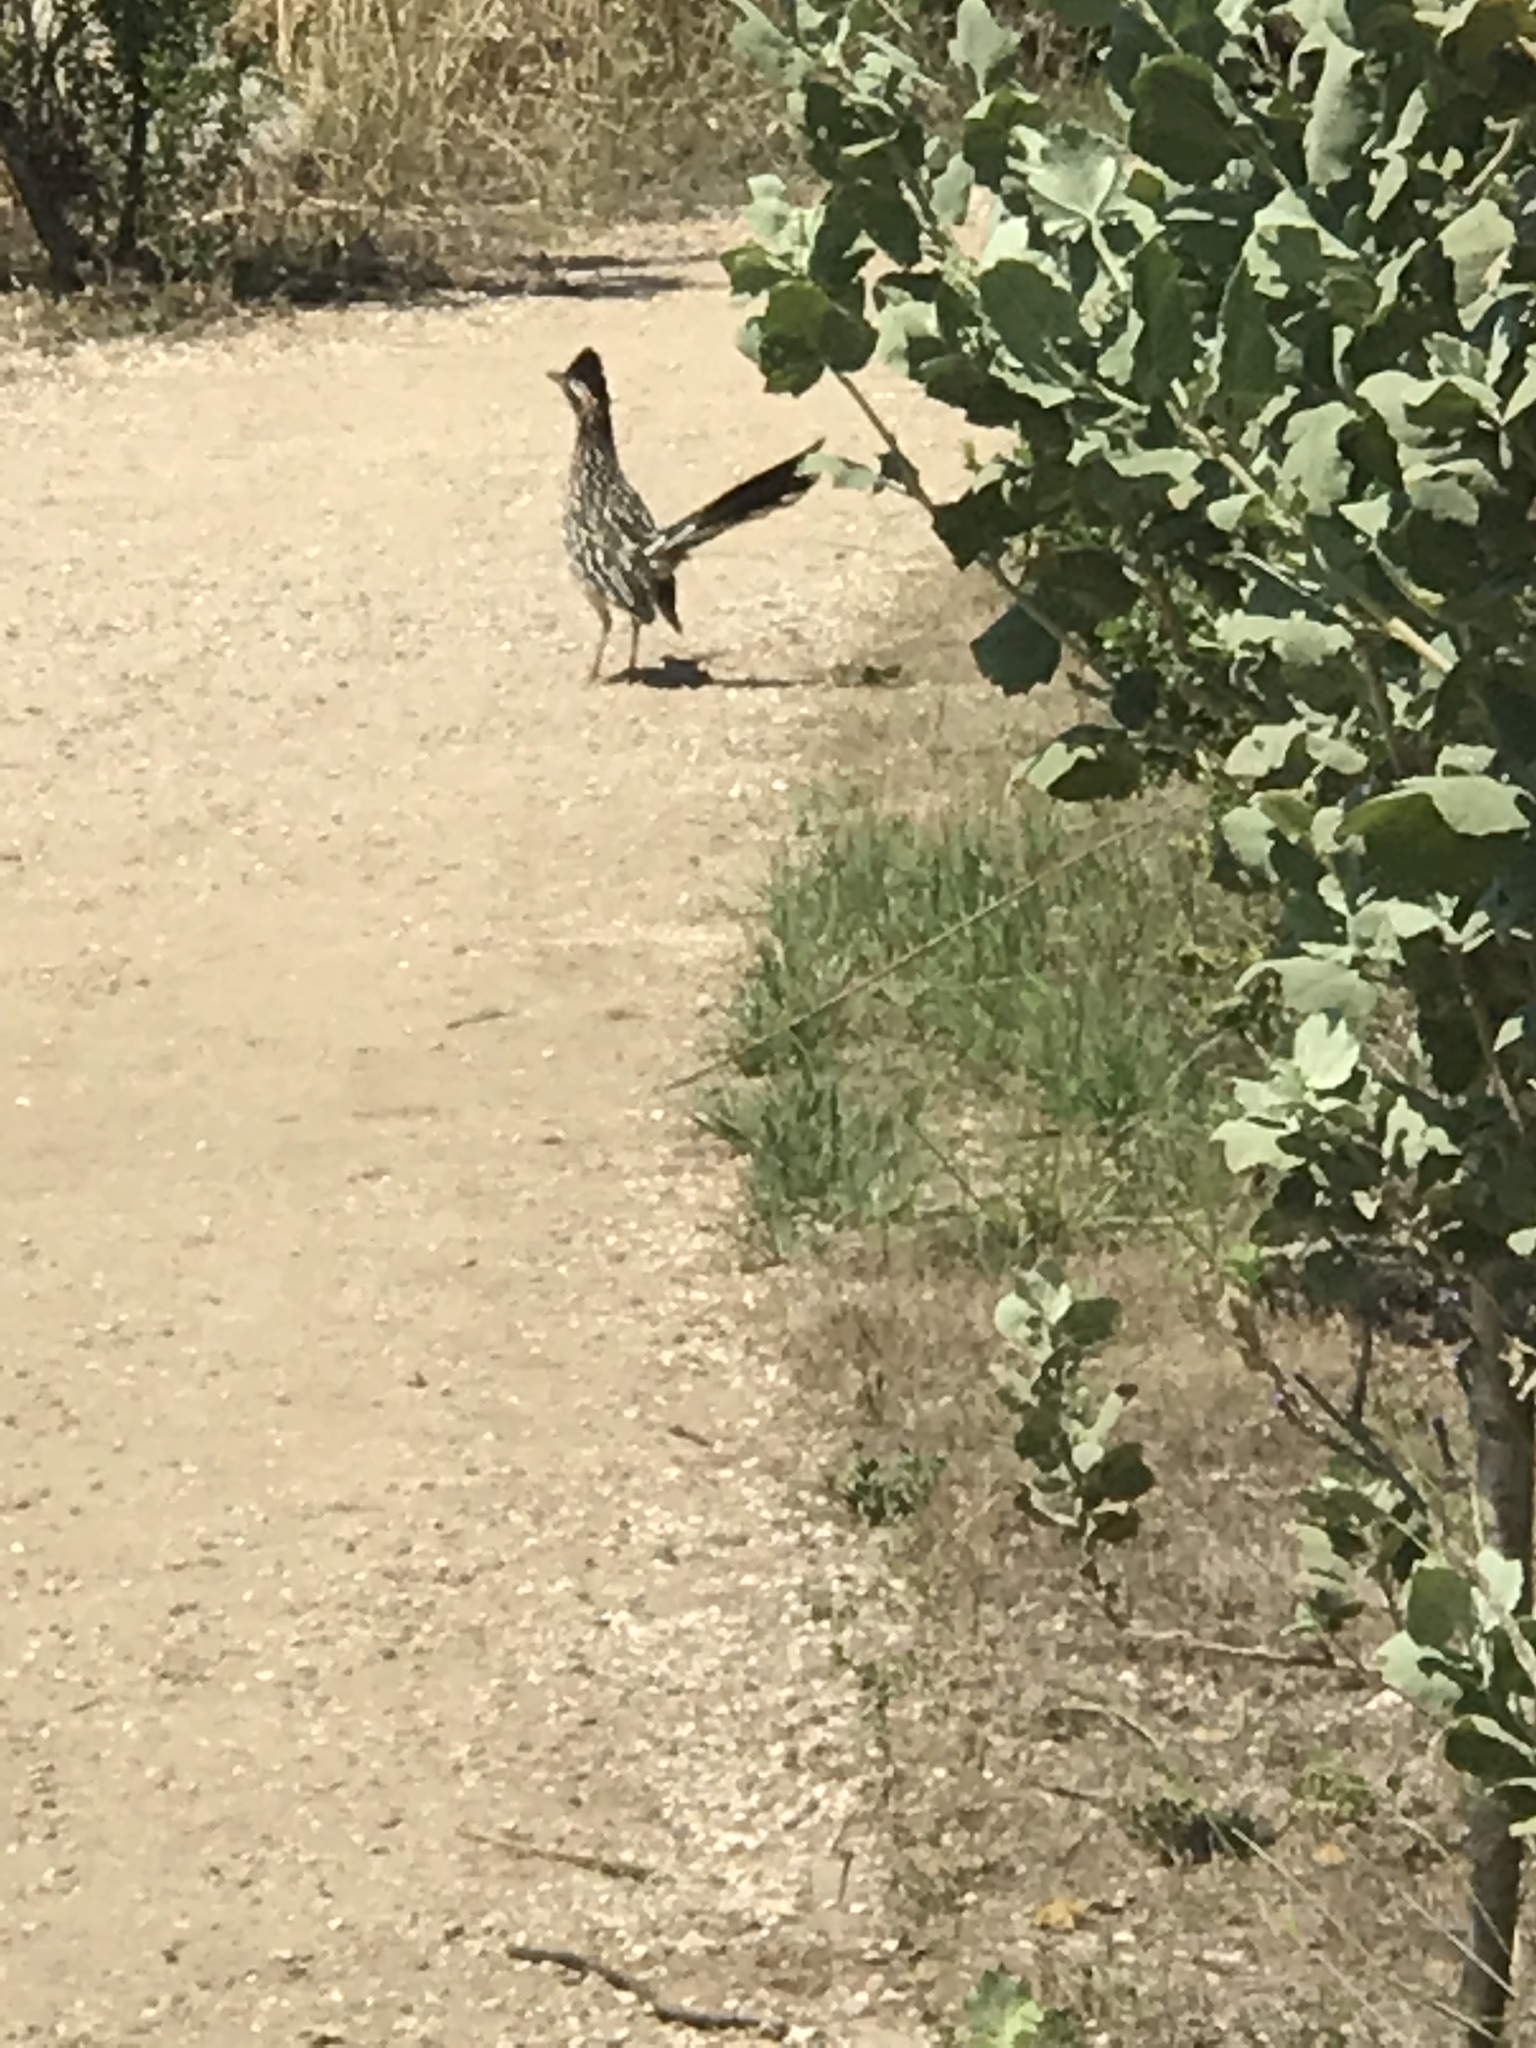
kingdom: Animalia
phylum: Chordata
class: Aves
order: Cuculiformes
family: Cuculidae
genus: Geococcyx
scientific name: Geococcyx californianus
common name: Greater roadrunner
